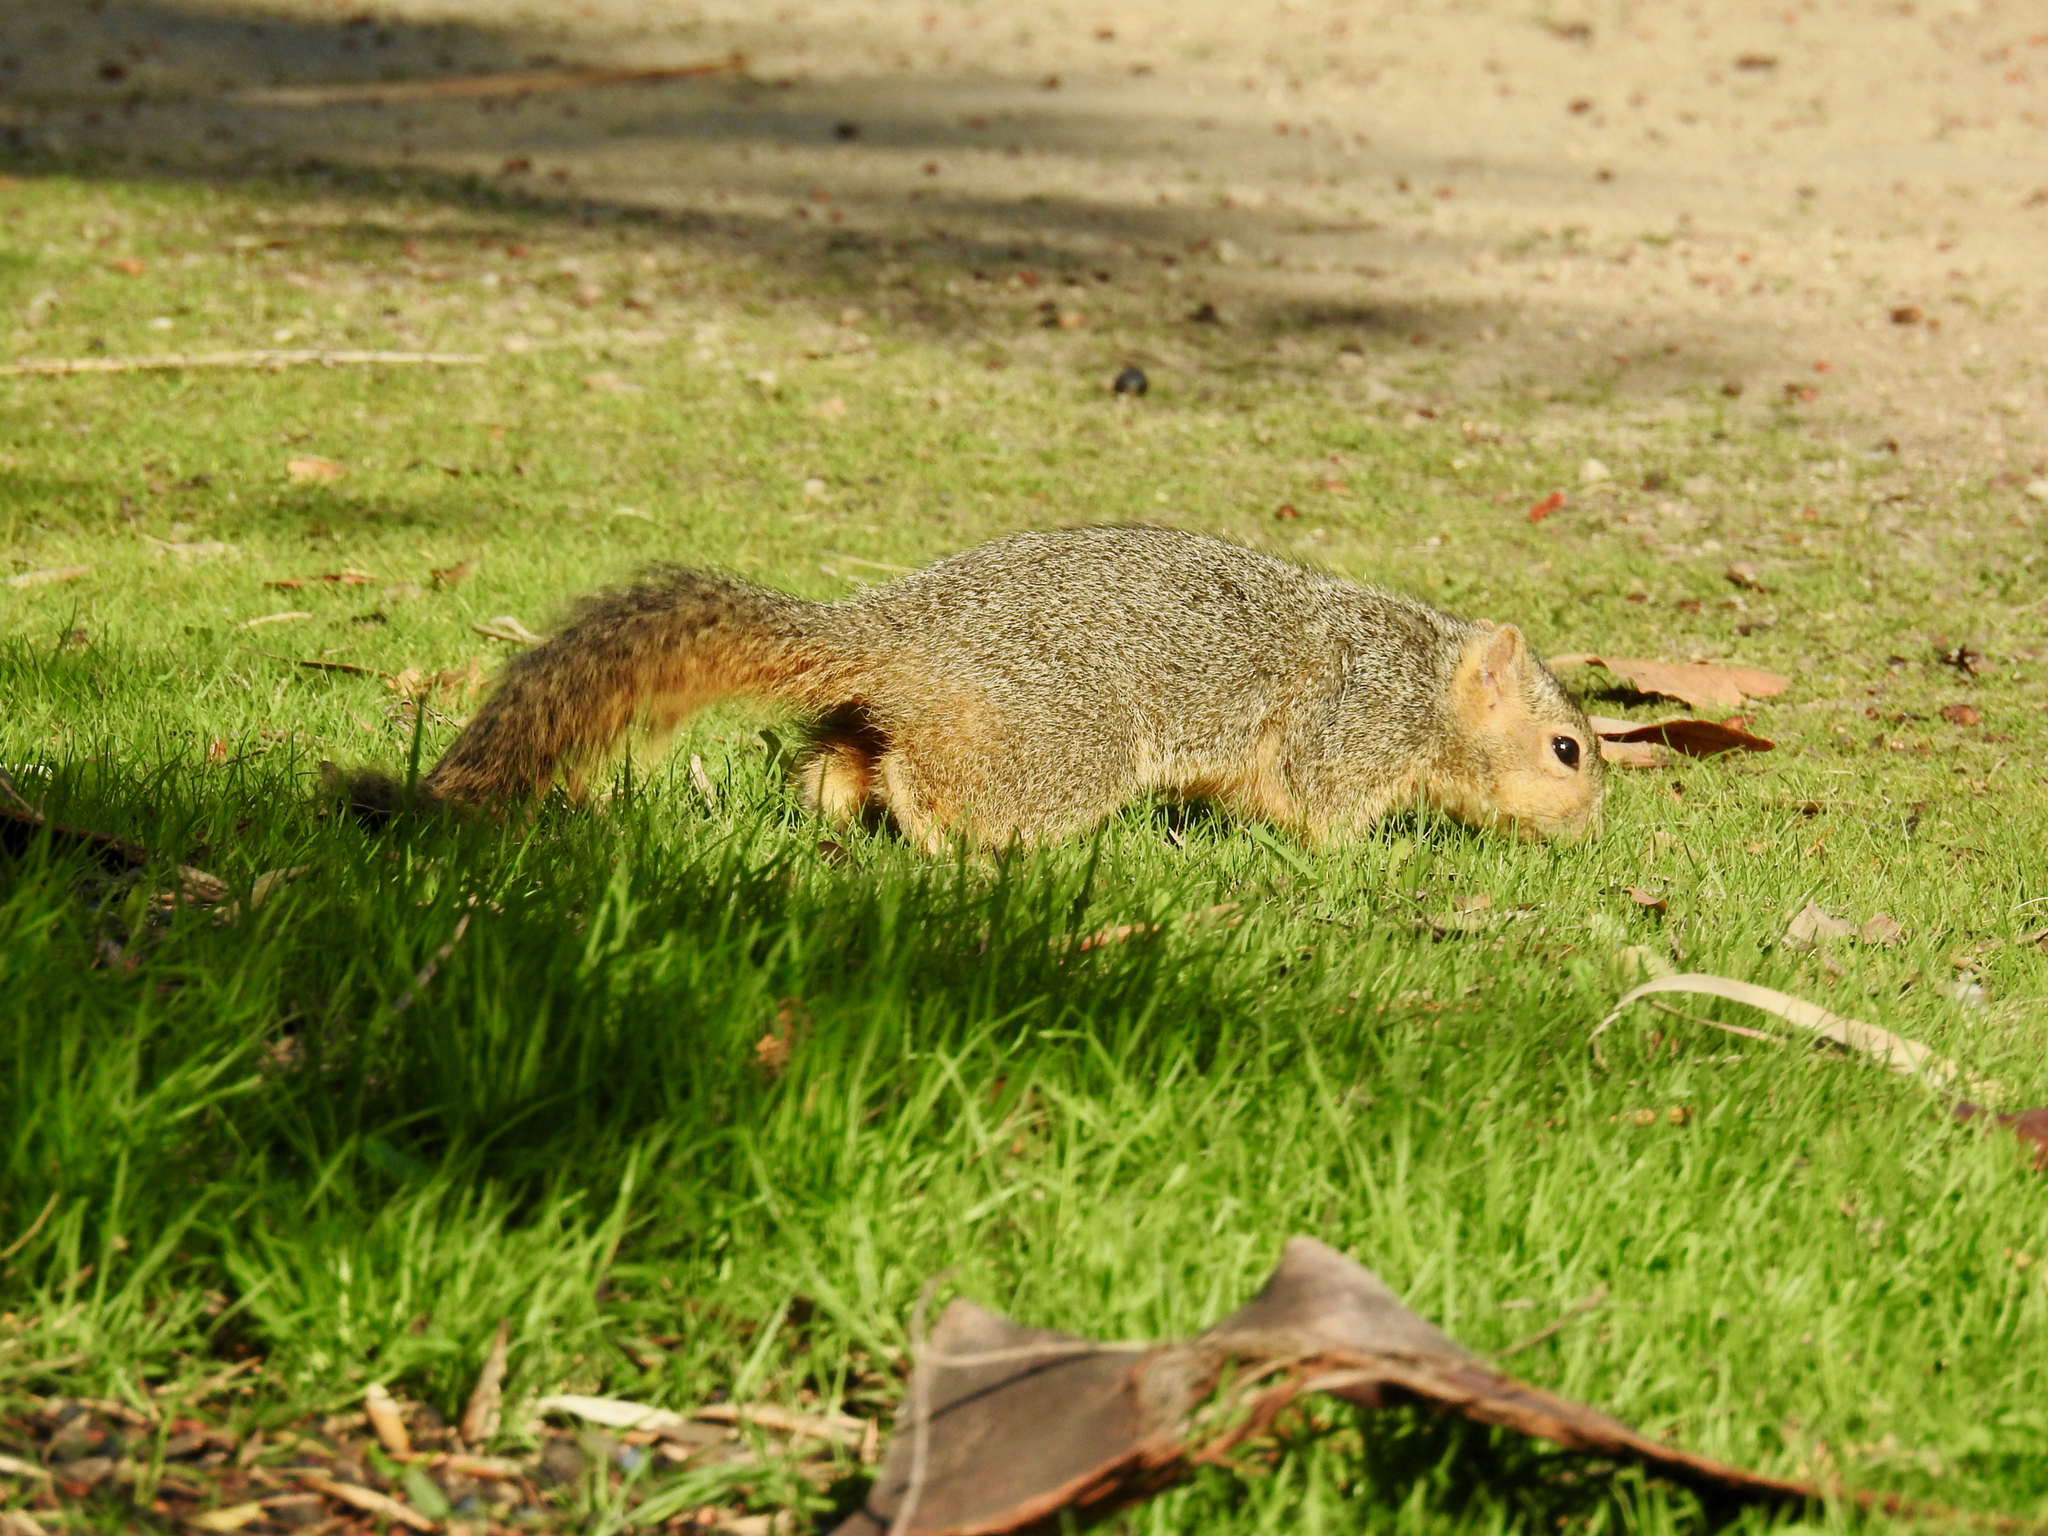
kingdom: Animalia
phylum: Chordata
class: Mammalia
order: Rodentia
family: Sciuridae
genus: Sciurus
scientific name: Sciurus niger
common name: Fox squirrel
